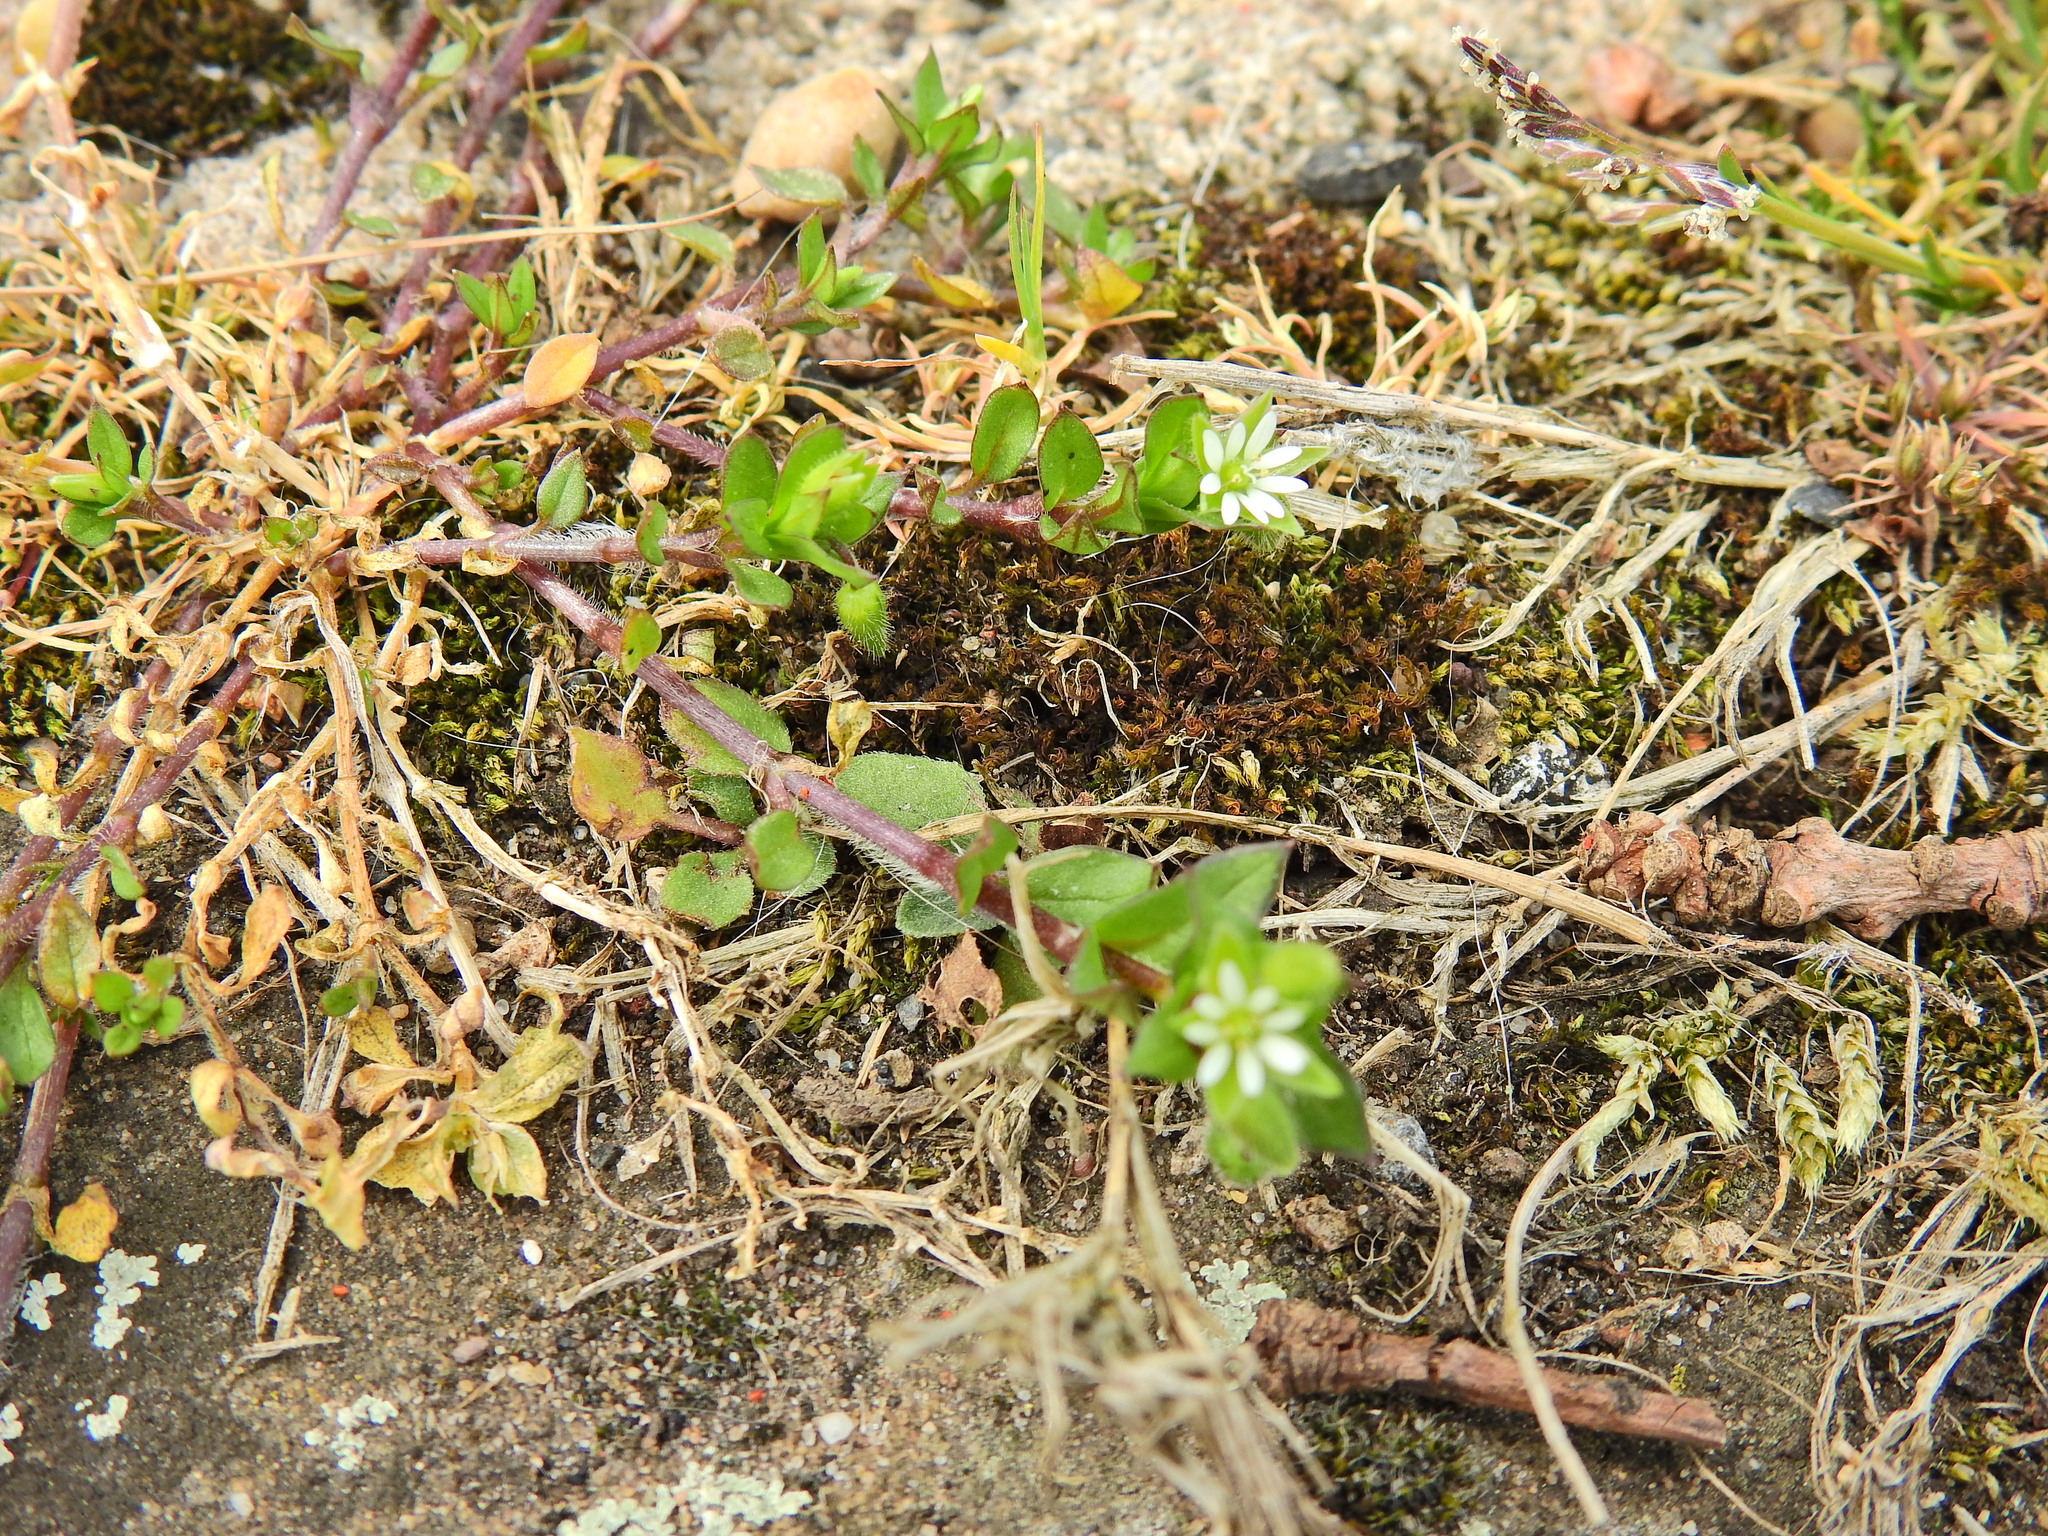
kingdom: Plantae
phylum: Tracheophyta
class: Magnoliopsida
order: Caryophyllales
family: Caryophyllaceae
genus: Stellaria
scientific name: Stellaria media
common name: Common chickweed
